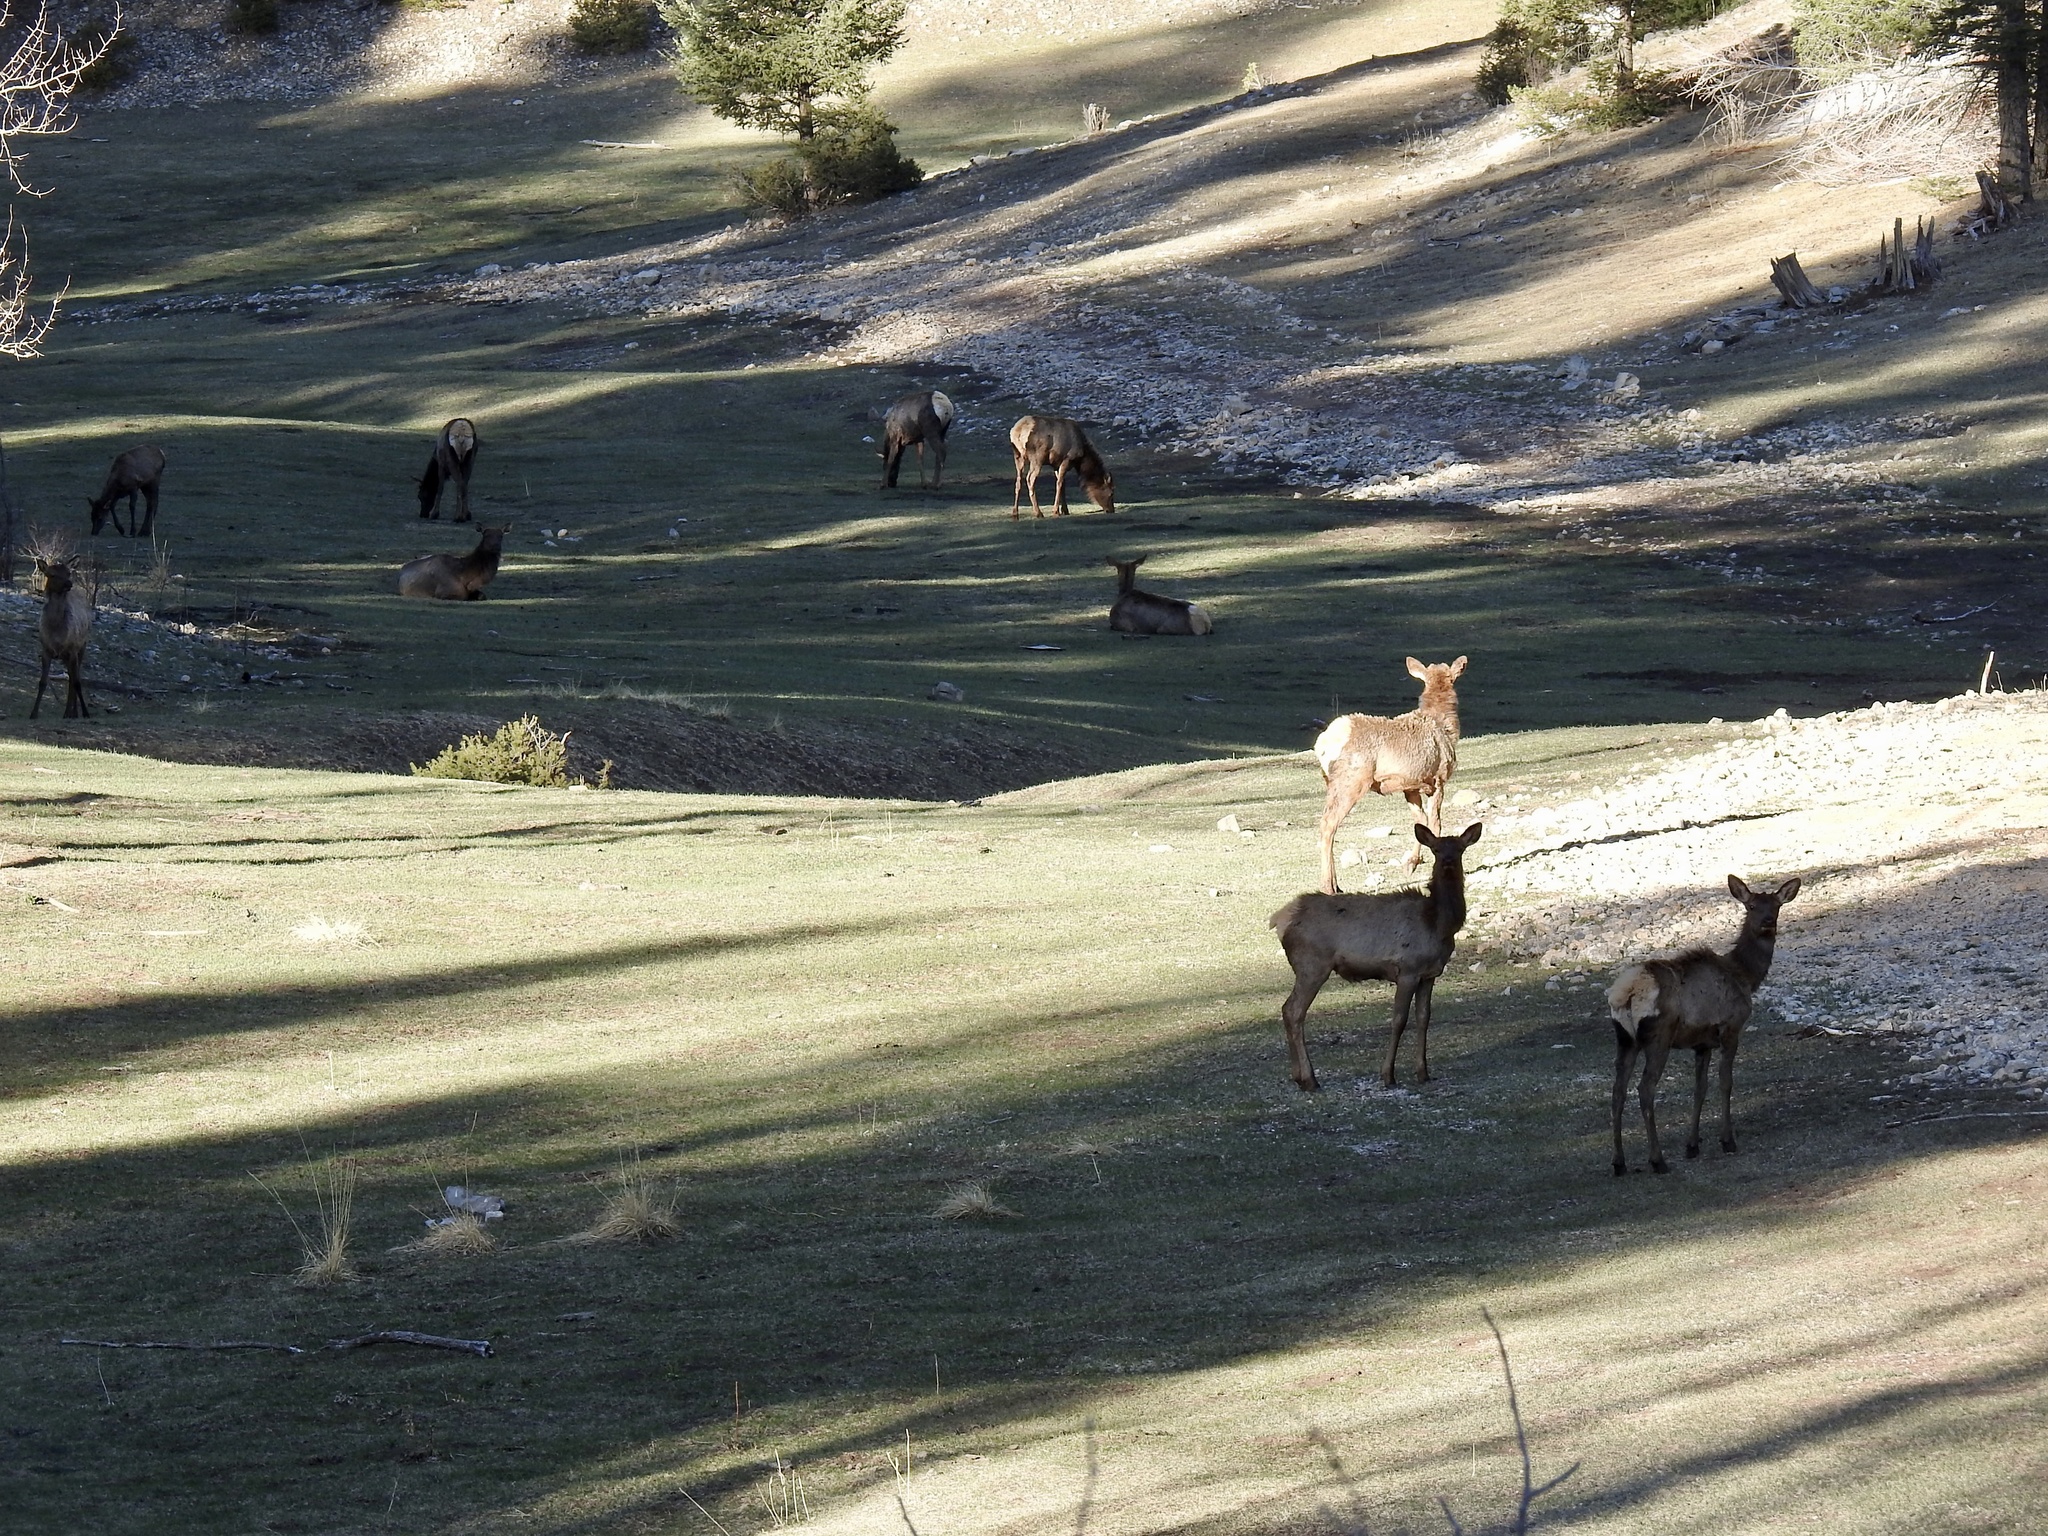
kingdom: Animalia
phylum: Chordata
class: Mammalia
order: Artiodactyla
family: Cervidae
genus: Cervus
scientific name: Cervus elaphus
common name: Red deer
